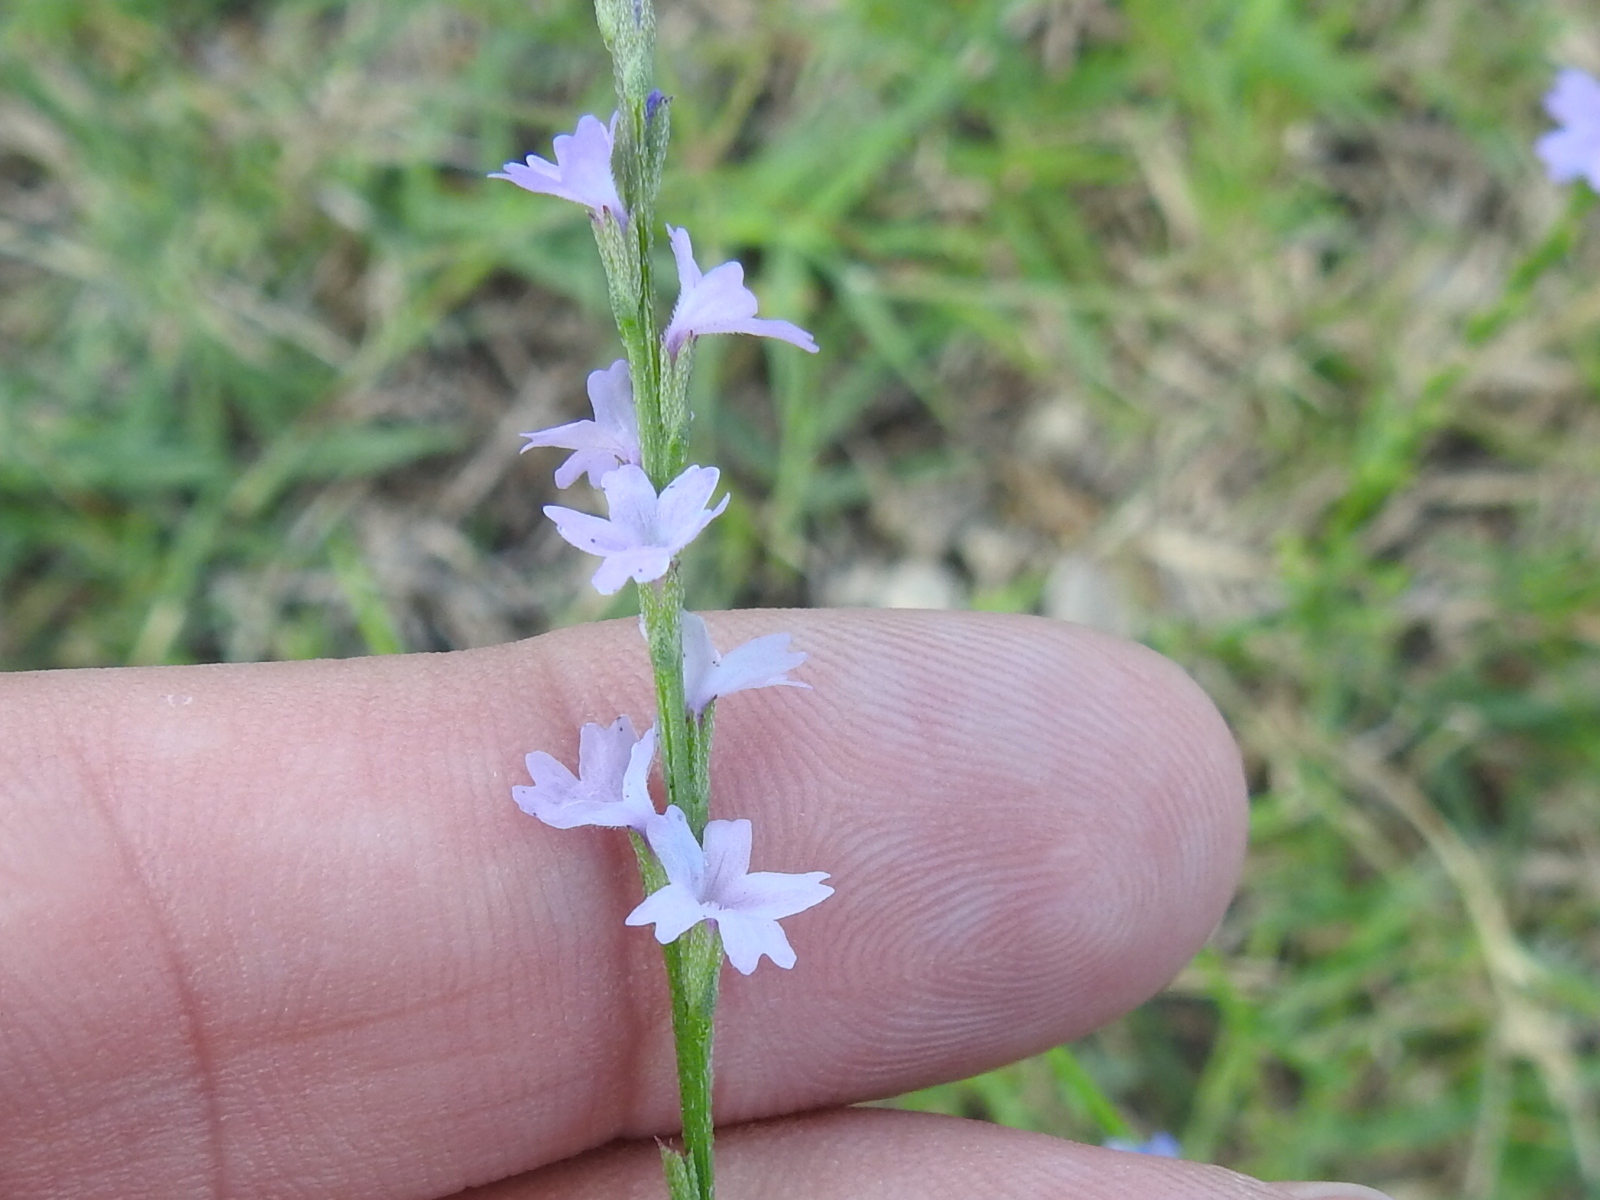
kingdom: Plantae
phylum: Tracheophyta
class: Magnoliopsida
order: Lamiales
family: Verbenaceae
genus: Verbena
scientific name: Verbena halei
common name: Texas vervain
